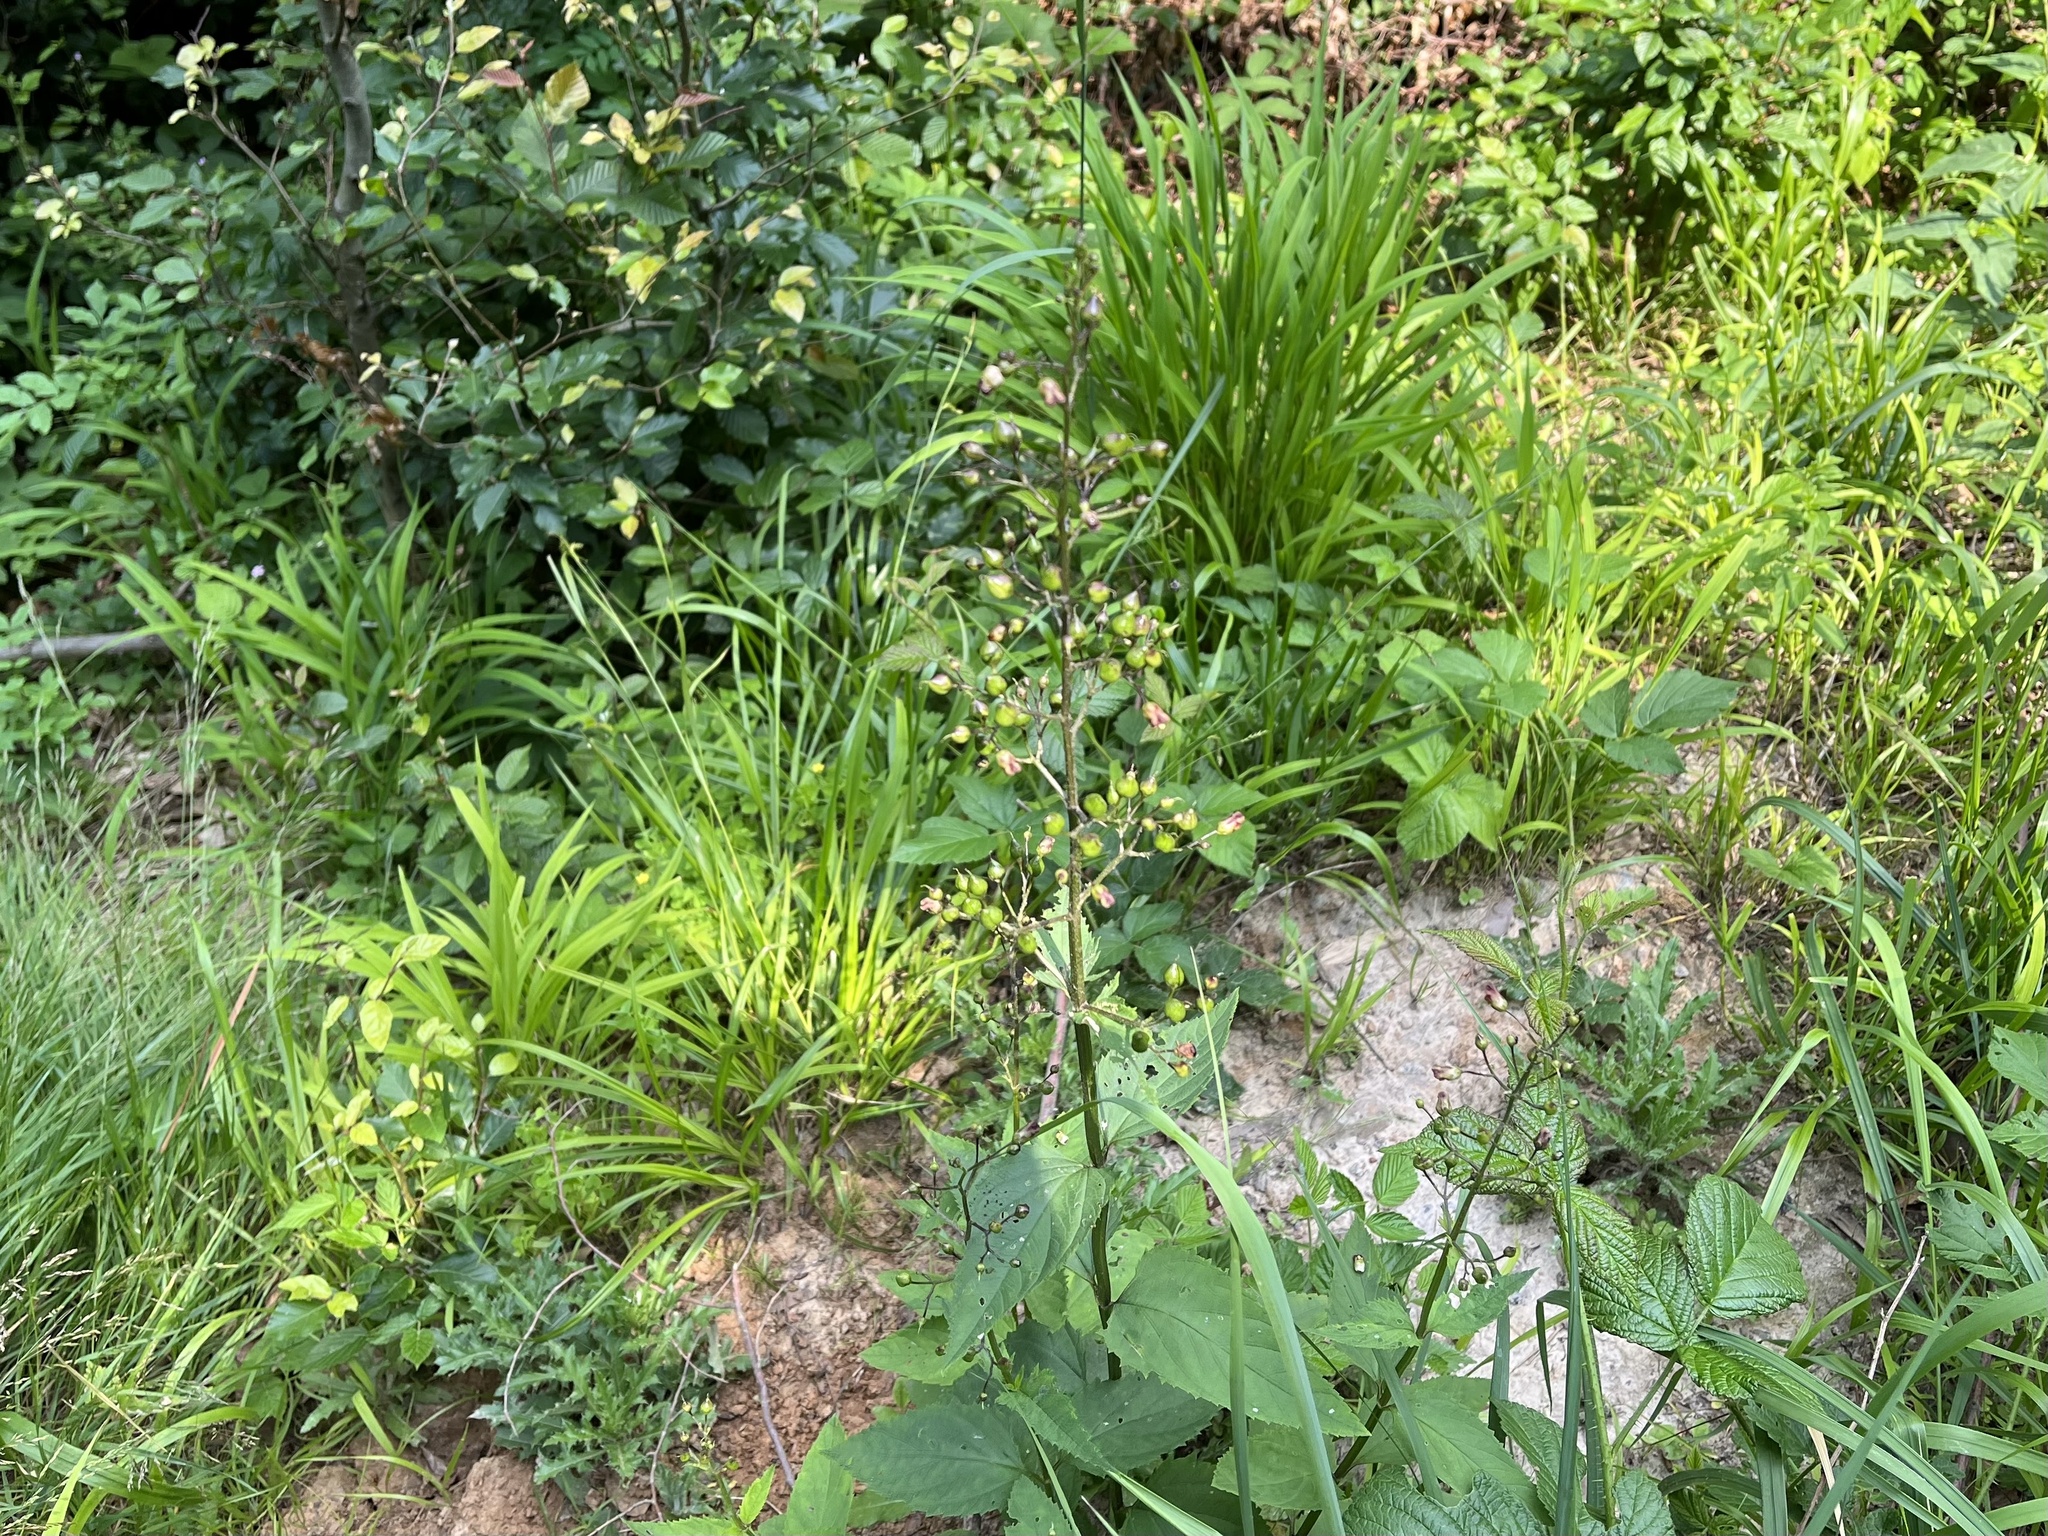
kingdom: Plantae
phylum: Tracheophyta
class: Magnoliopsida
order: Lamiales
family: Scrophulariaceae
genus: Scrophularia
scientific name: Scrophularia nodosa
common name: Common figwort
